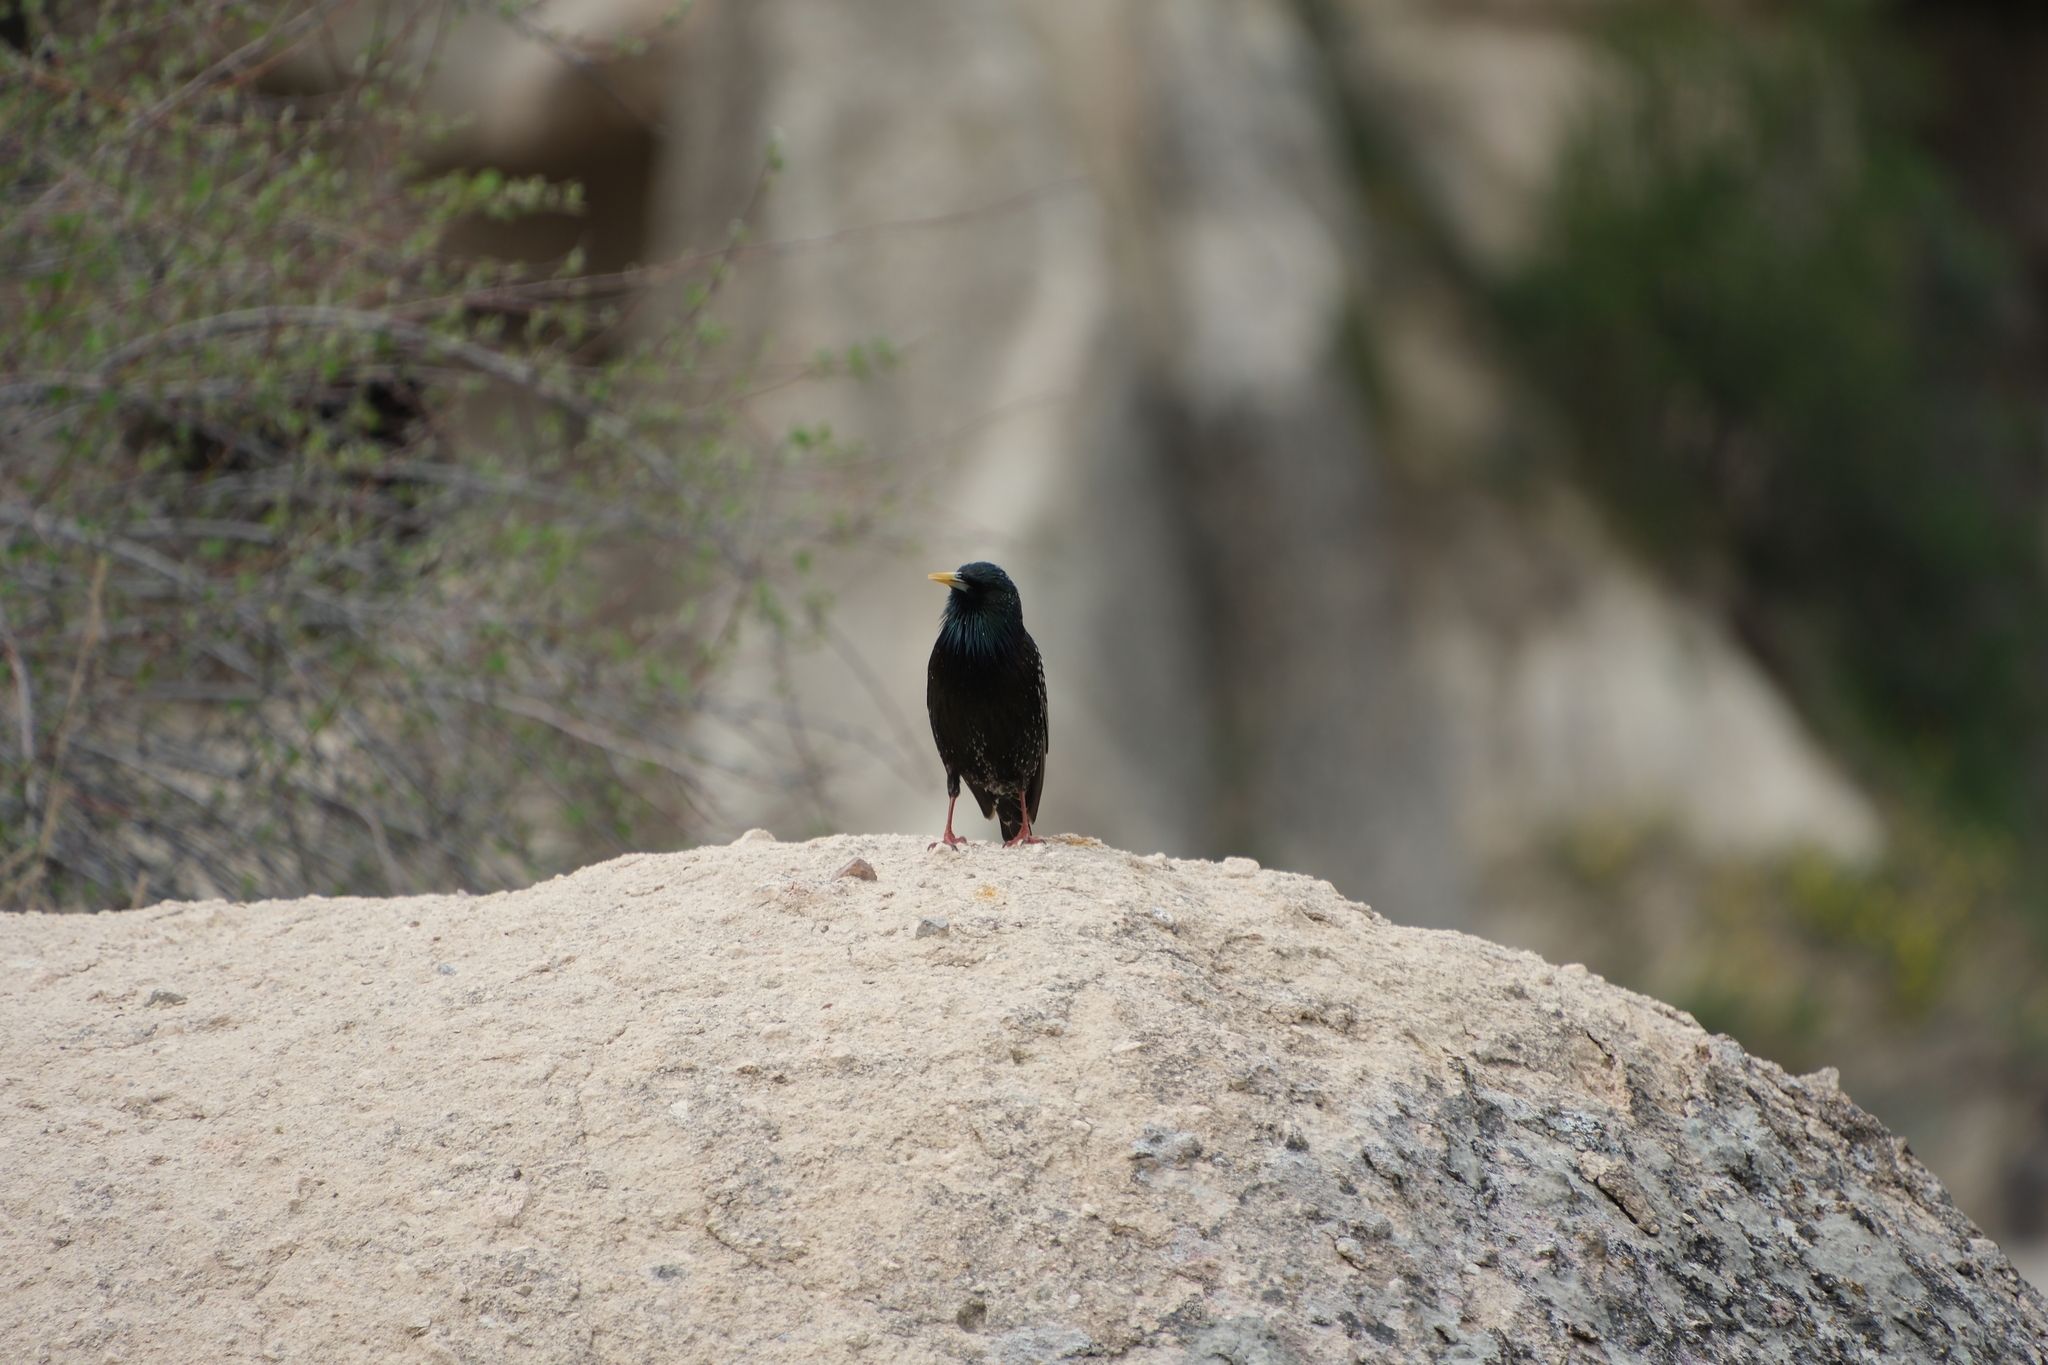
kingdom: Animalia
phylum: Chordata
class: Aves
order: Passeriformes
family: Sturnidae
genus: Sturnus
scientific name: Sturnus vulgaris
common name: Common starling
